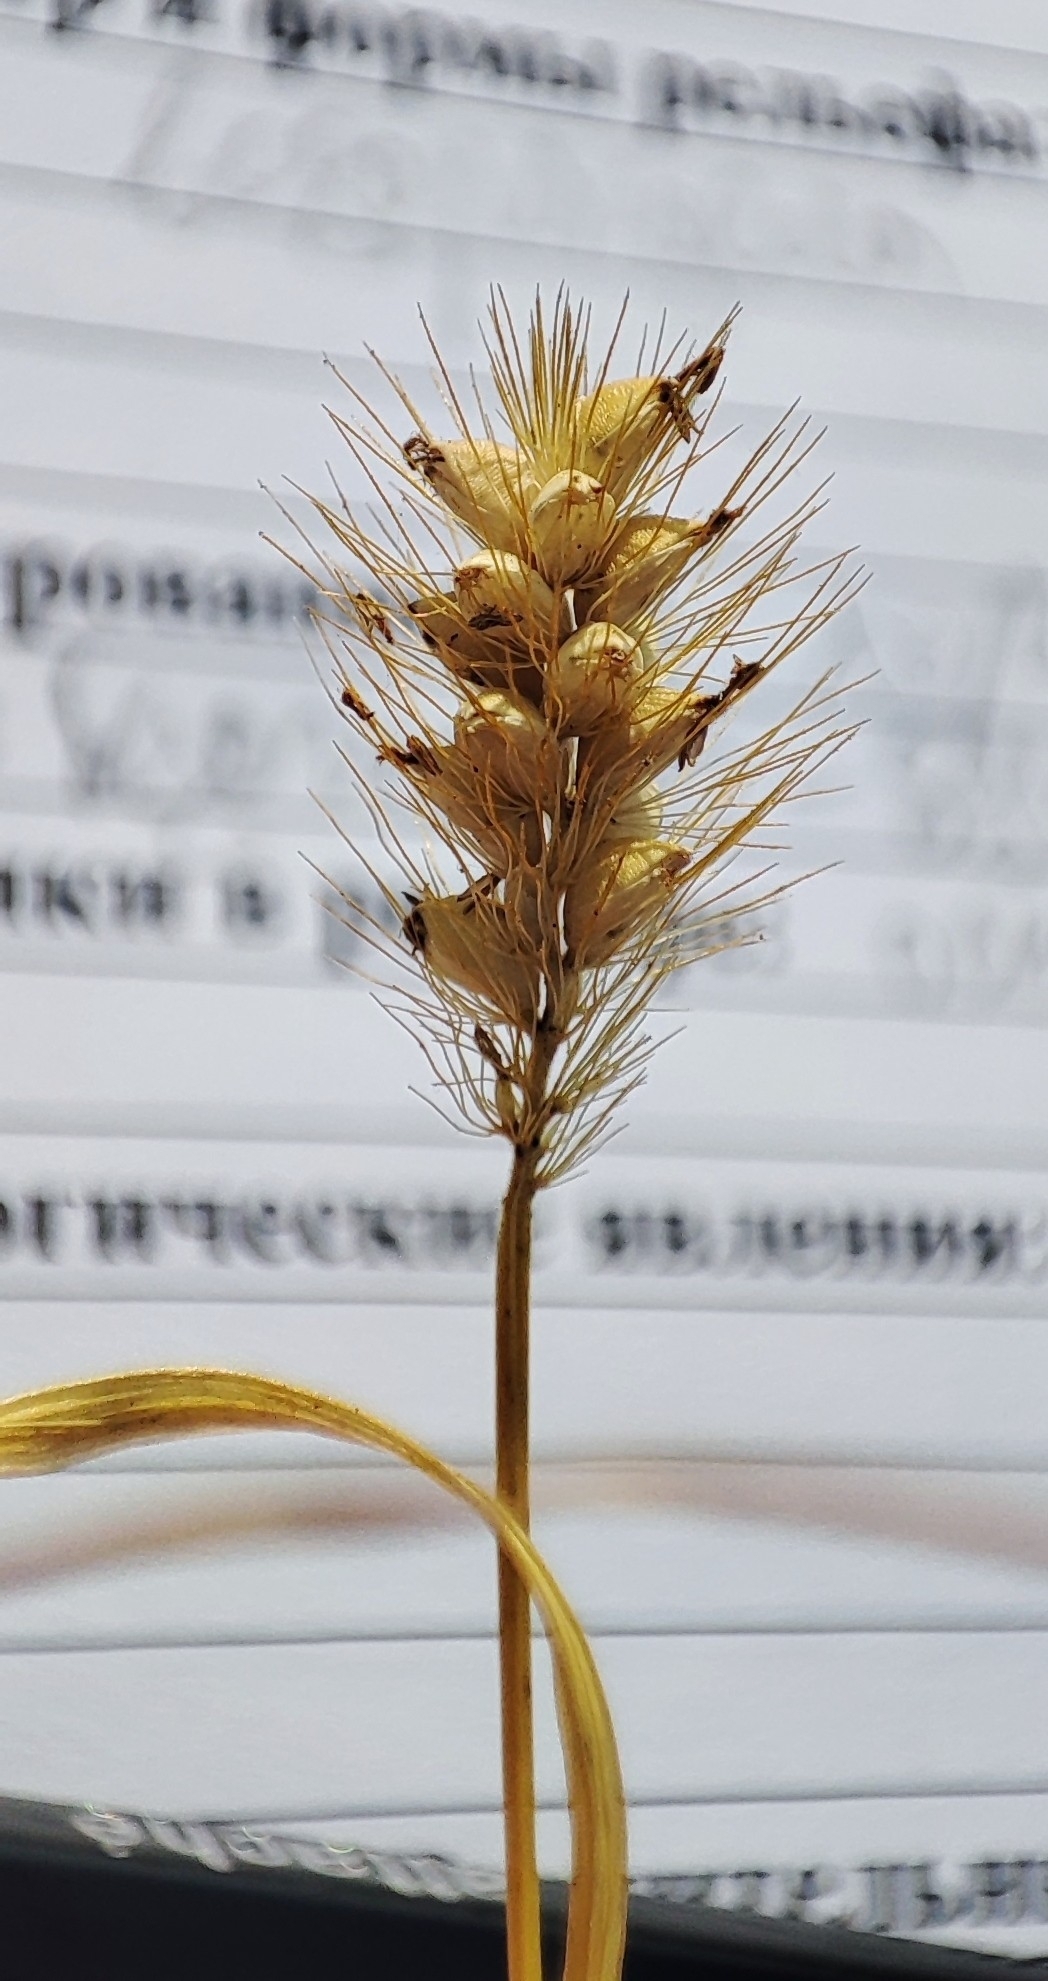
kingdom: Plantae
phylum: Tracheophyta
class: Liliopsida
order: Poales
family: Poaceae
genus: Setaria
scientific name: Setaria pumila
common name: Yellow bristle-grass
